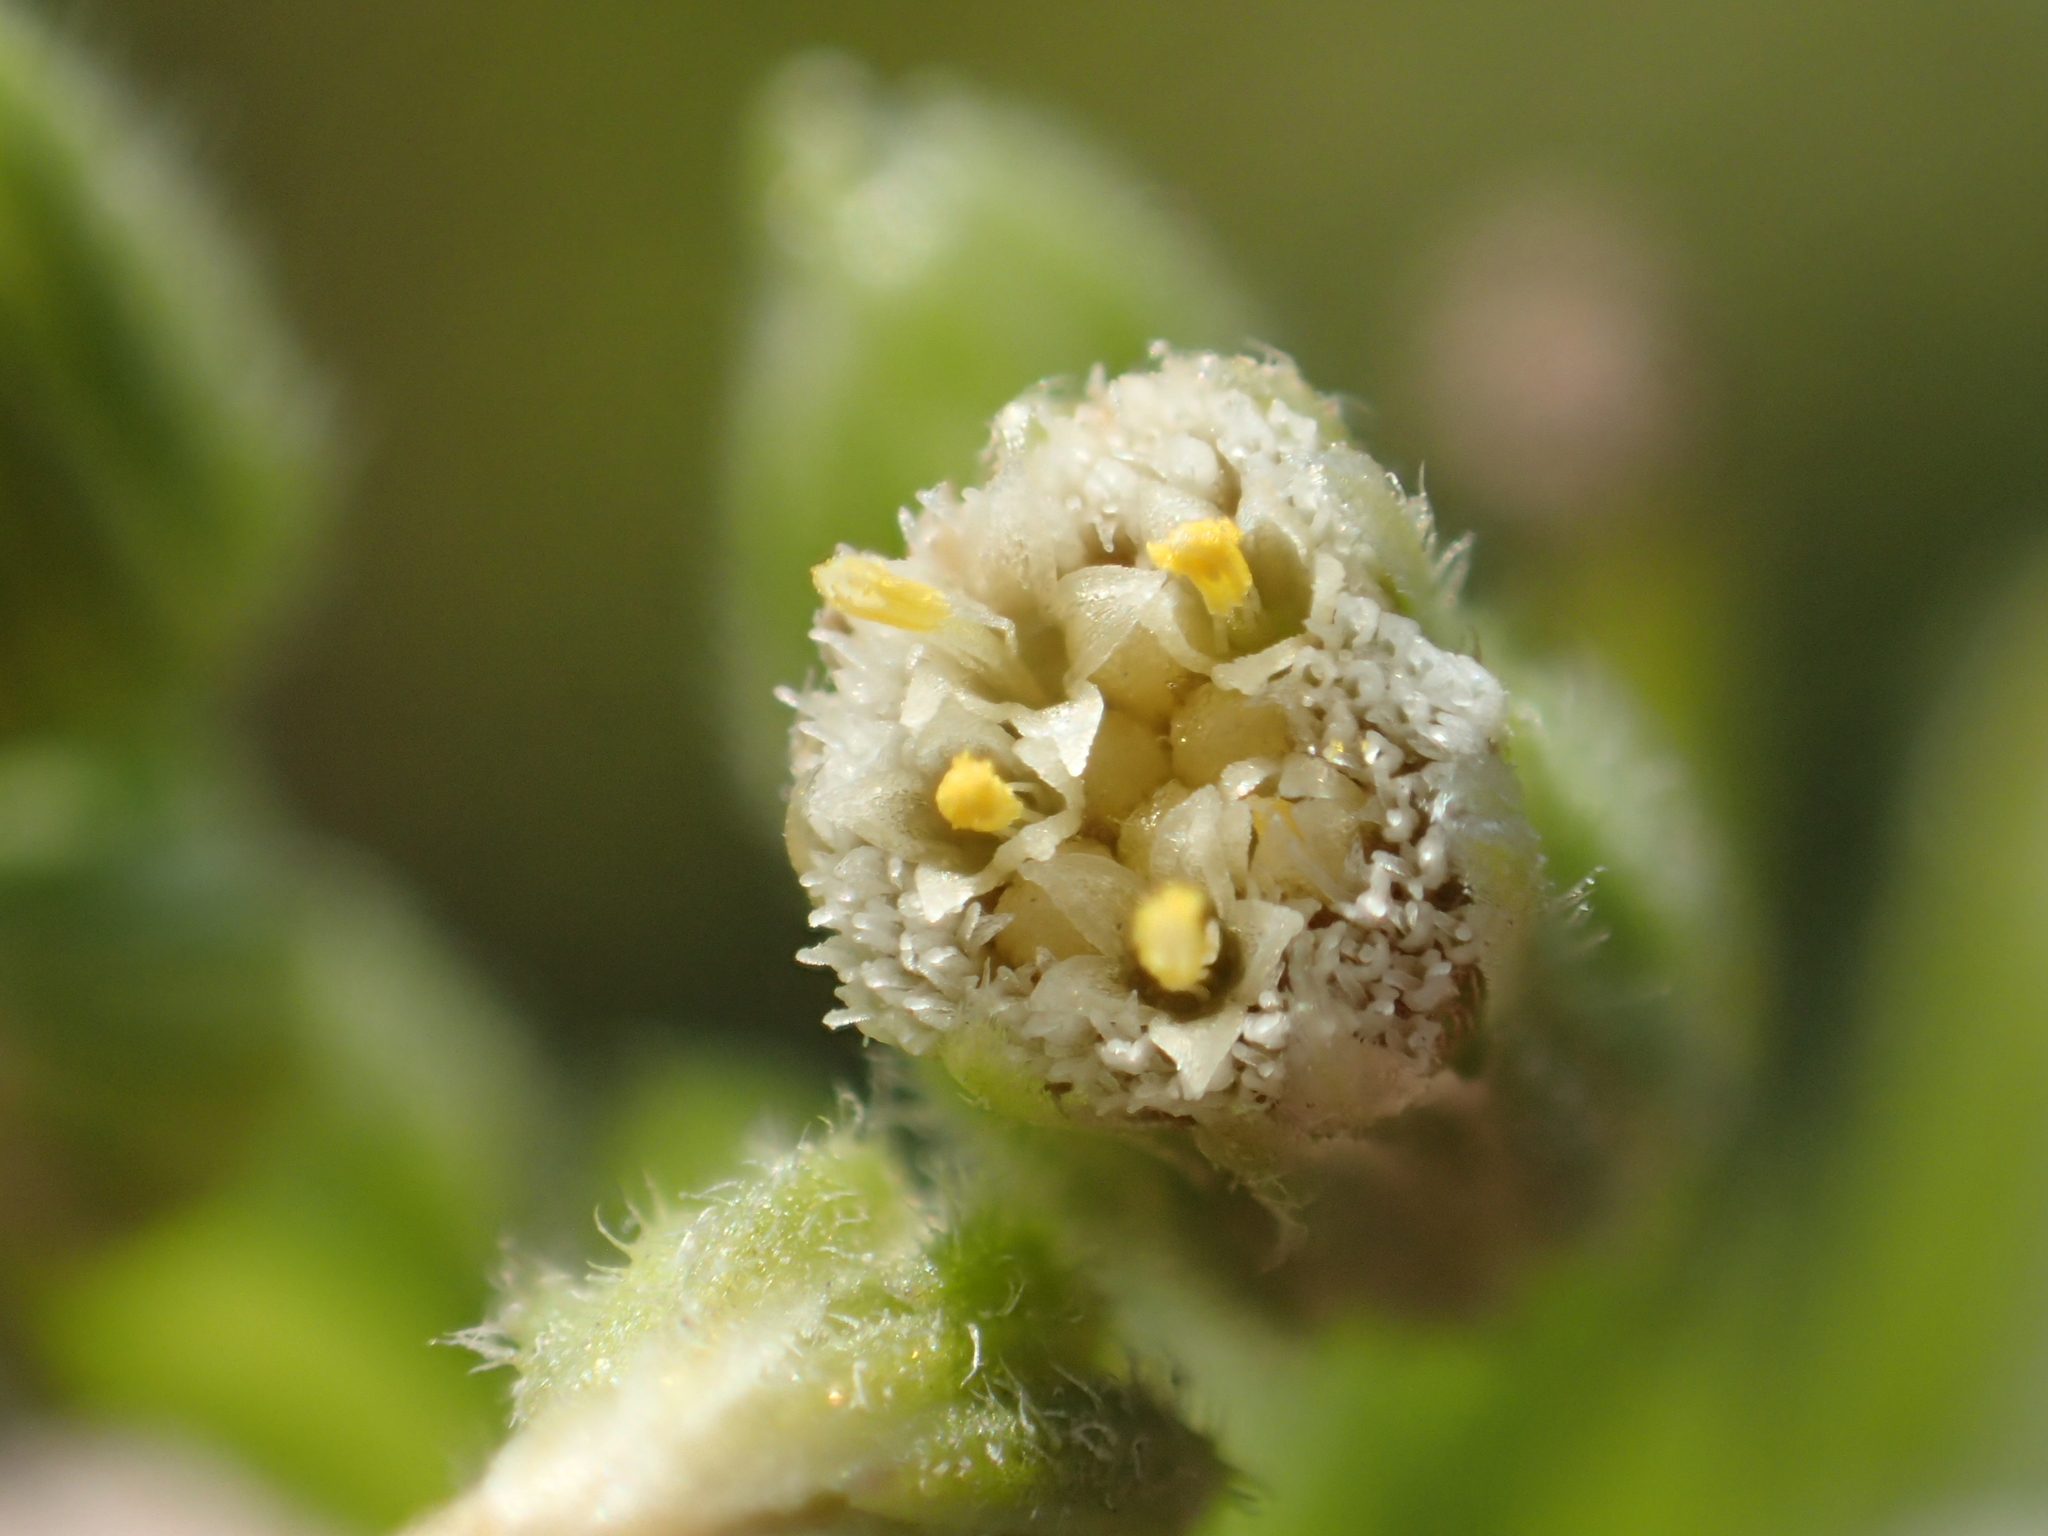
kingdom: Plantae
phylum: Tracheophyta
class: Magnoliopsida
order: Asterales
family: Asteraceae
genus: Erigeron
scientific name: Erigeron sumatrensis
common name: Daisy
